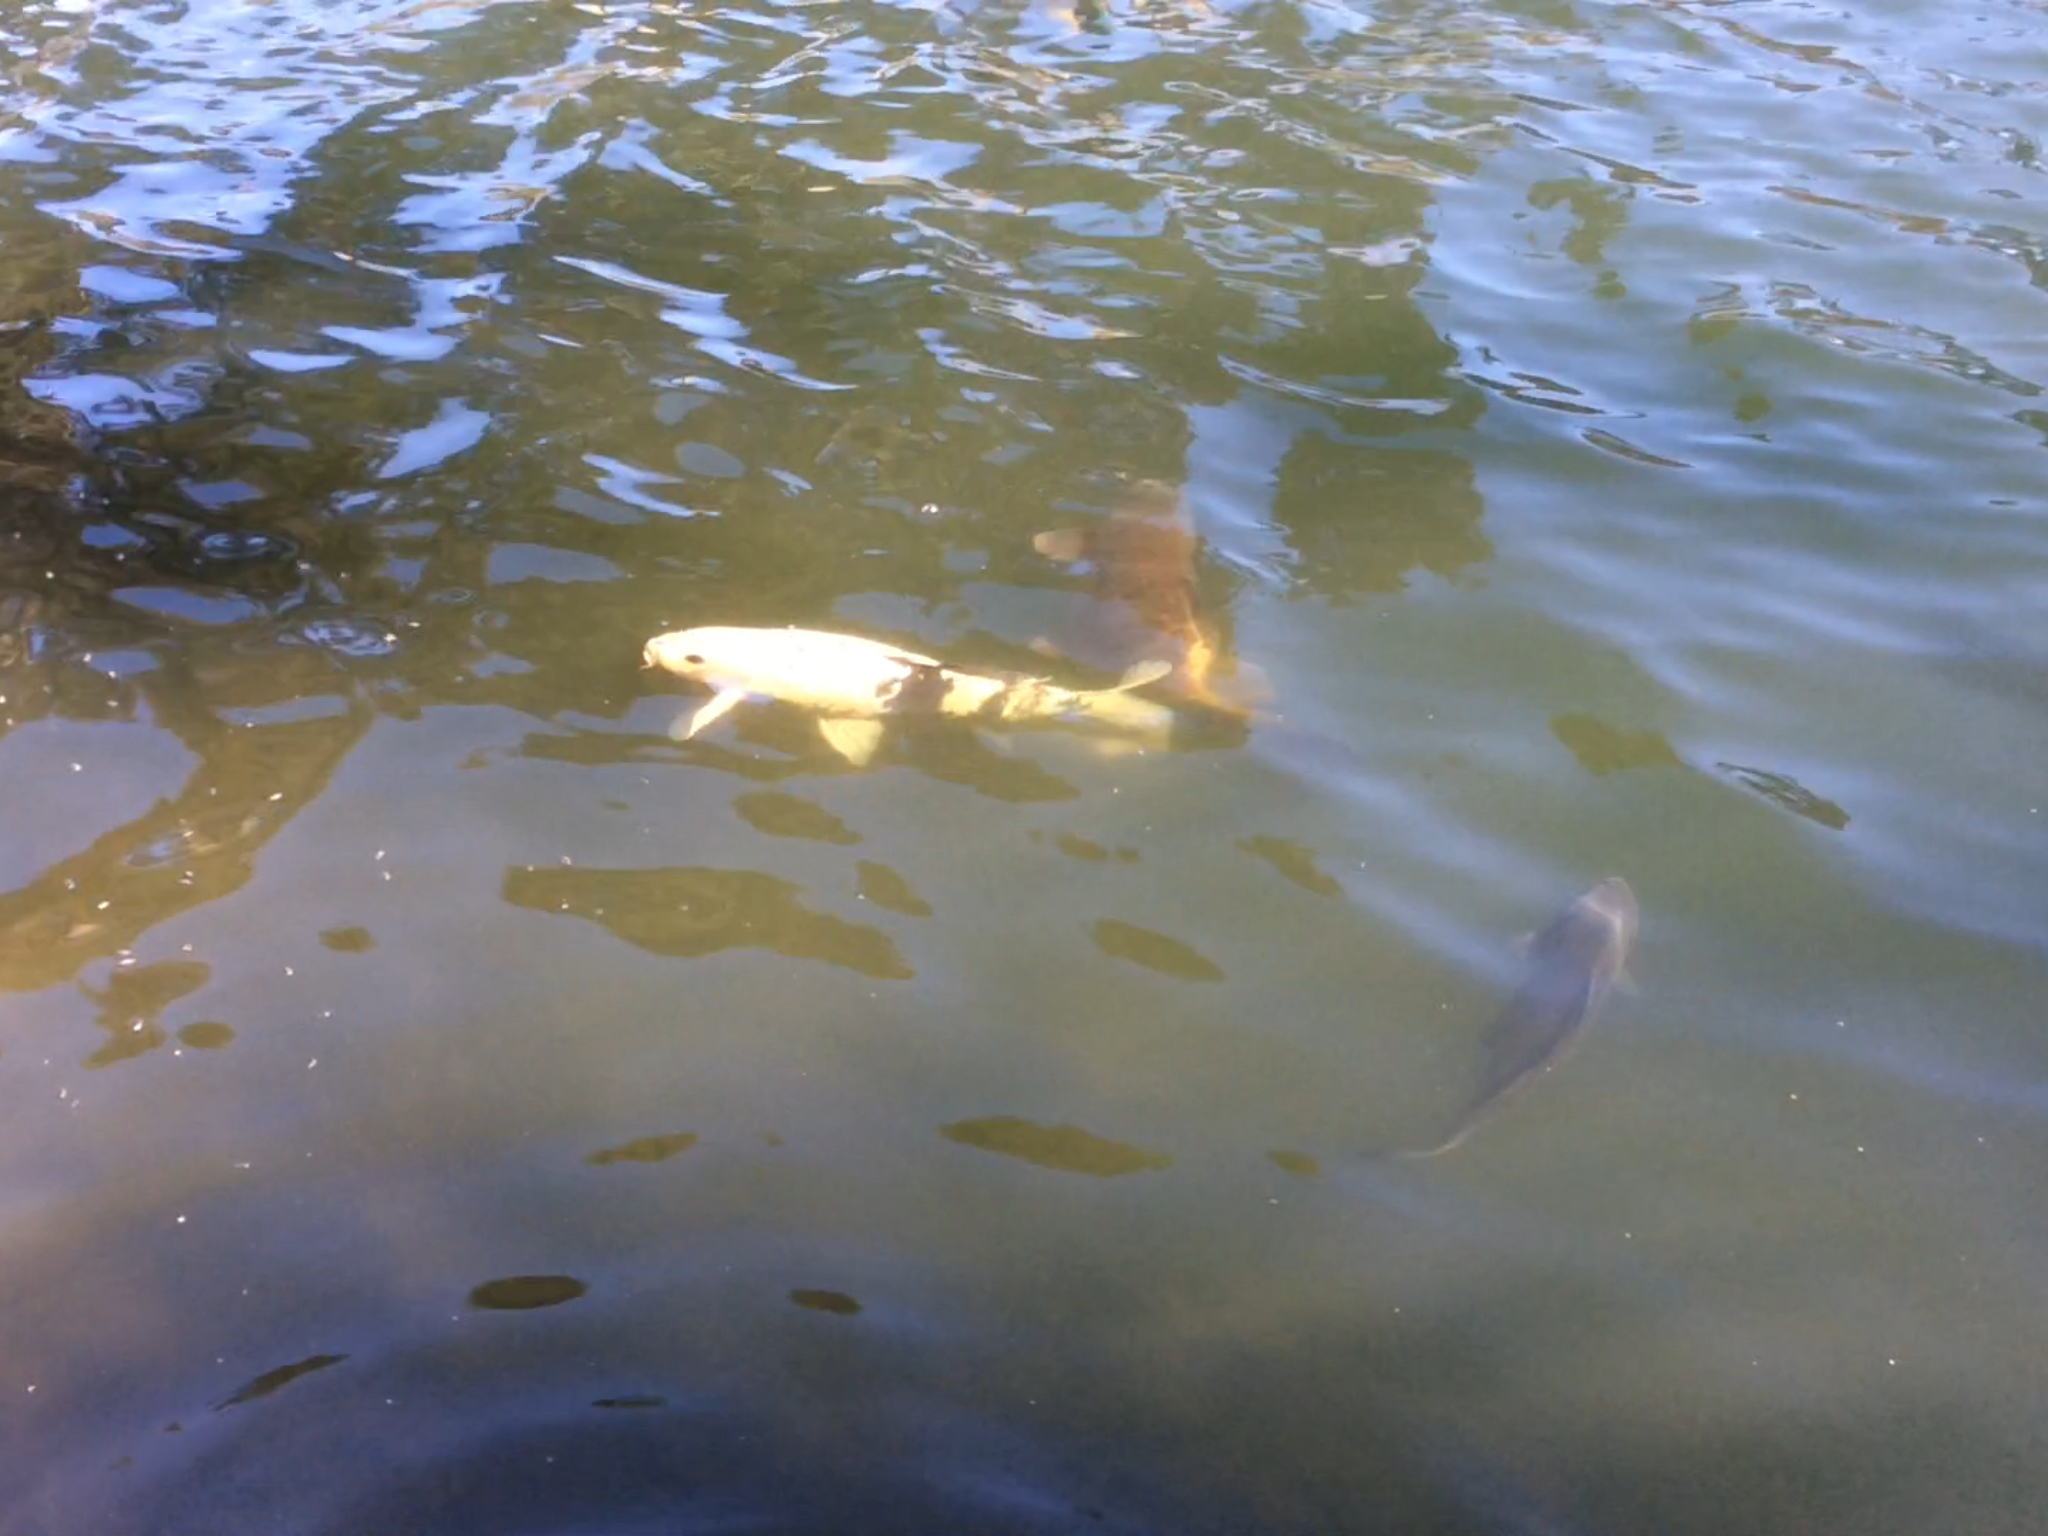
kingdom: Animalia
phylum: Chordata
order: Cypriniformes
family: Cyprinidae
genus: Cyprinus
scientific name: Cyprinus rubrofuscus
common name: Koi
